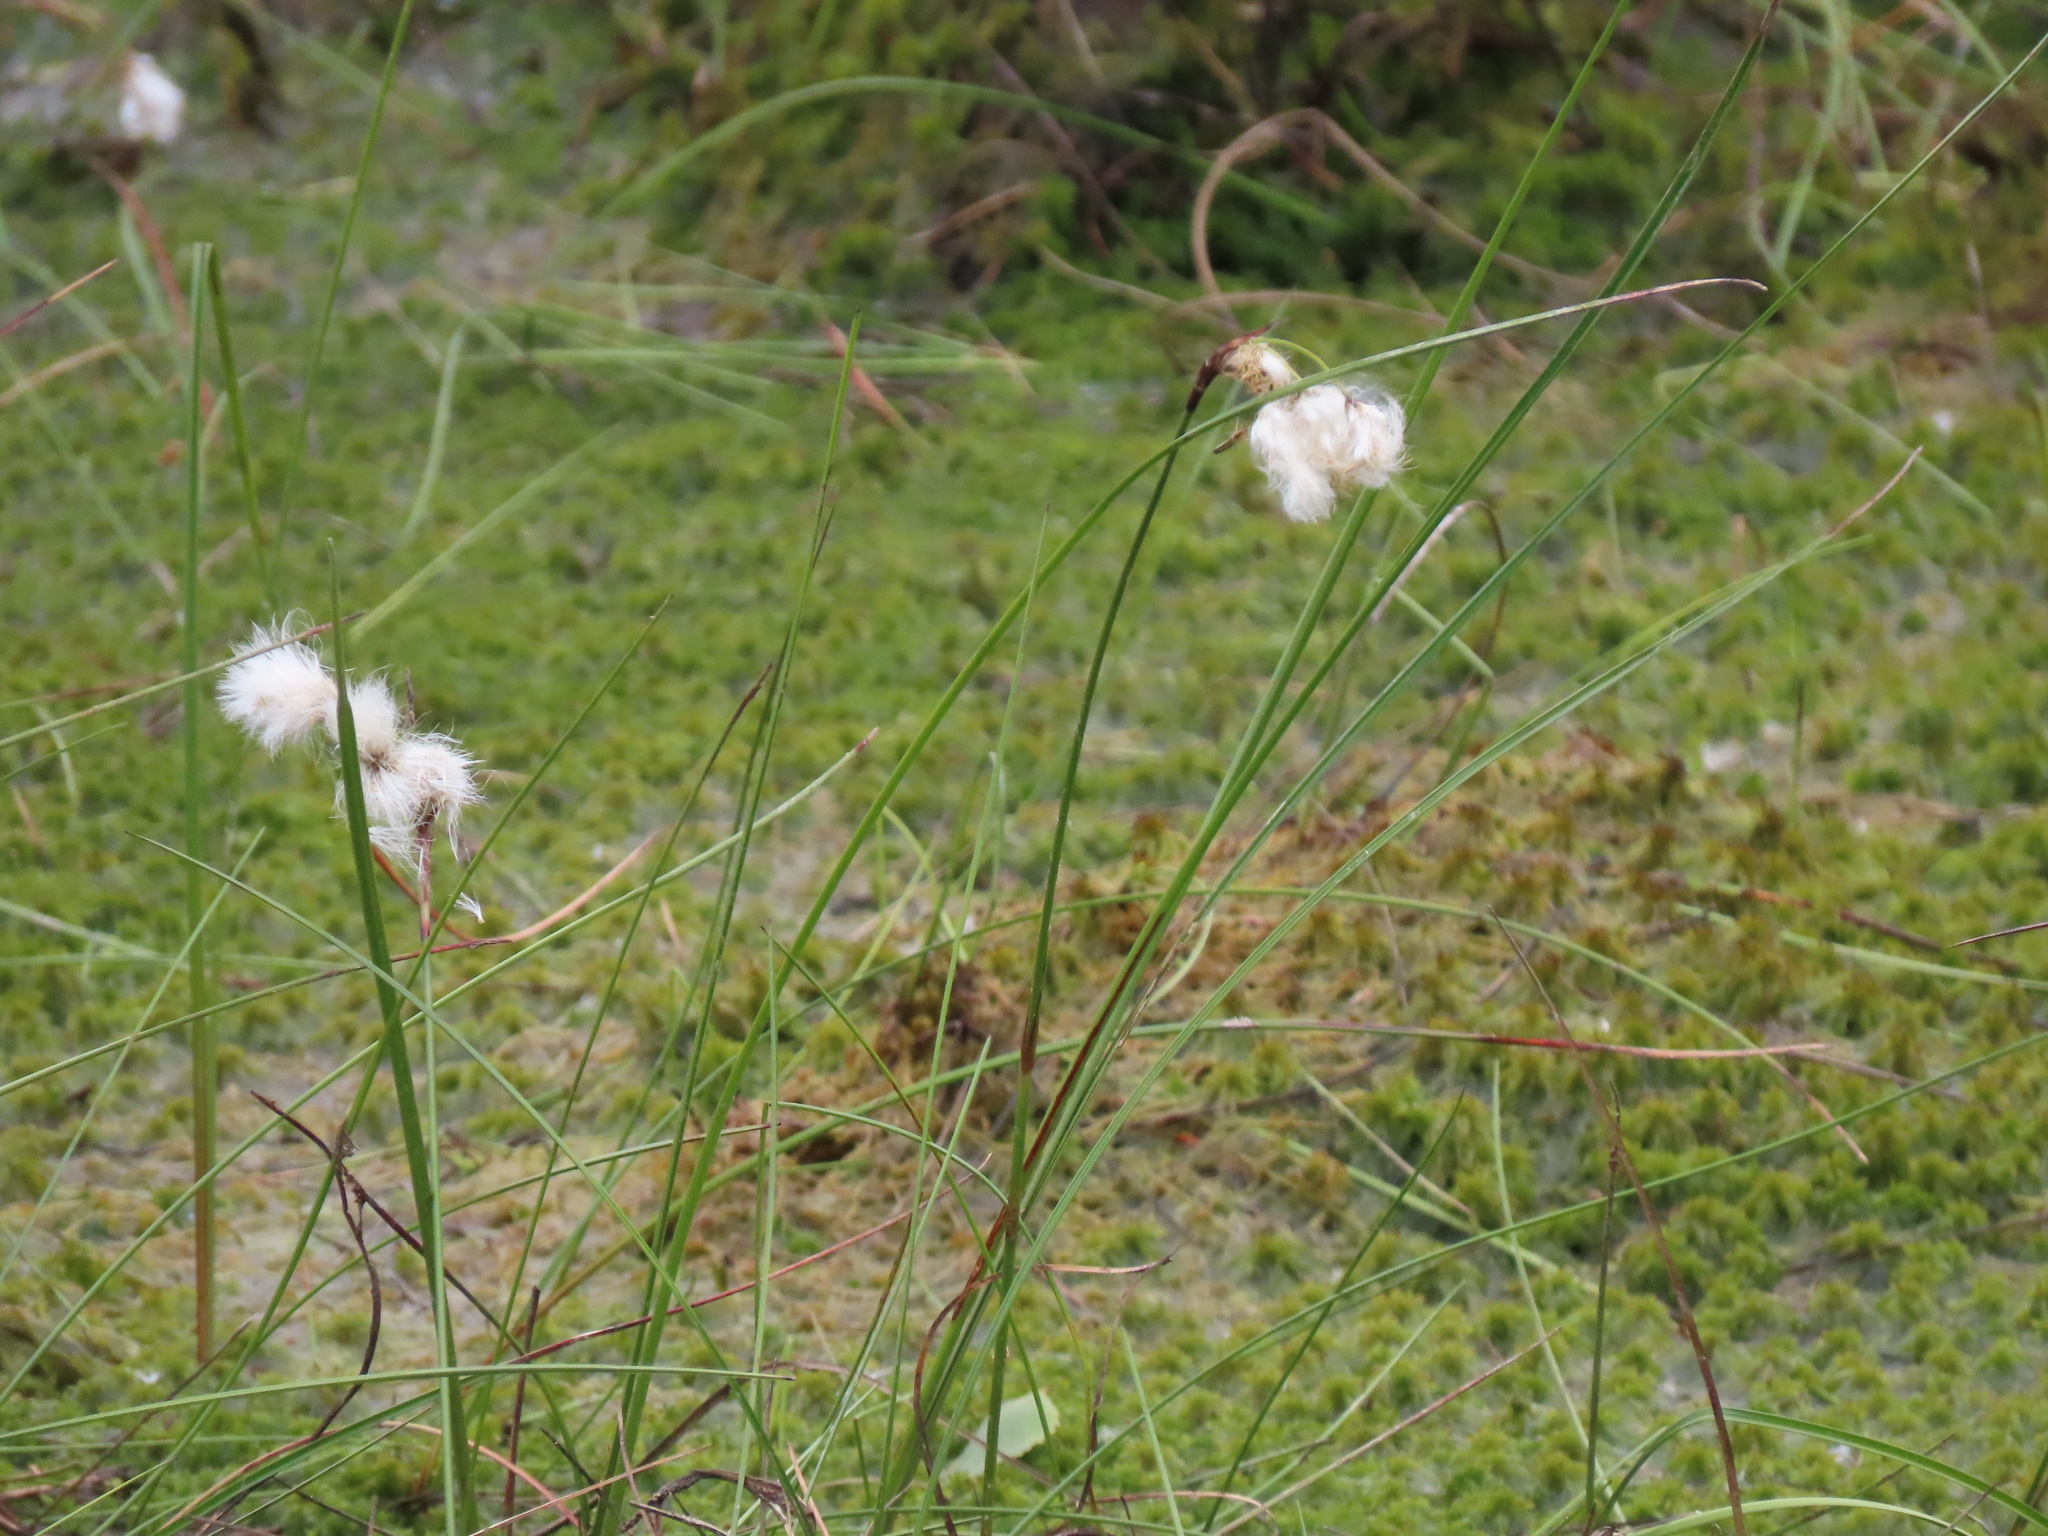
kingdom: Plantae
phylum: Tracheophyta
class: Liliopsida
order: Poales
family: Cyperaceae
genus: Eriophorum
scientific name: Eriophorum angustifolium
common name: Common cottongrass
